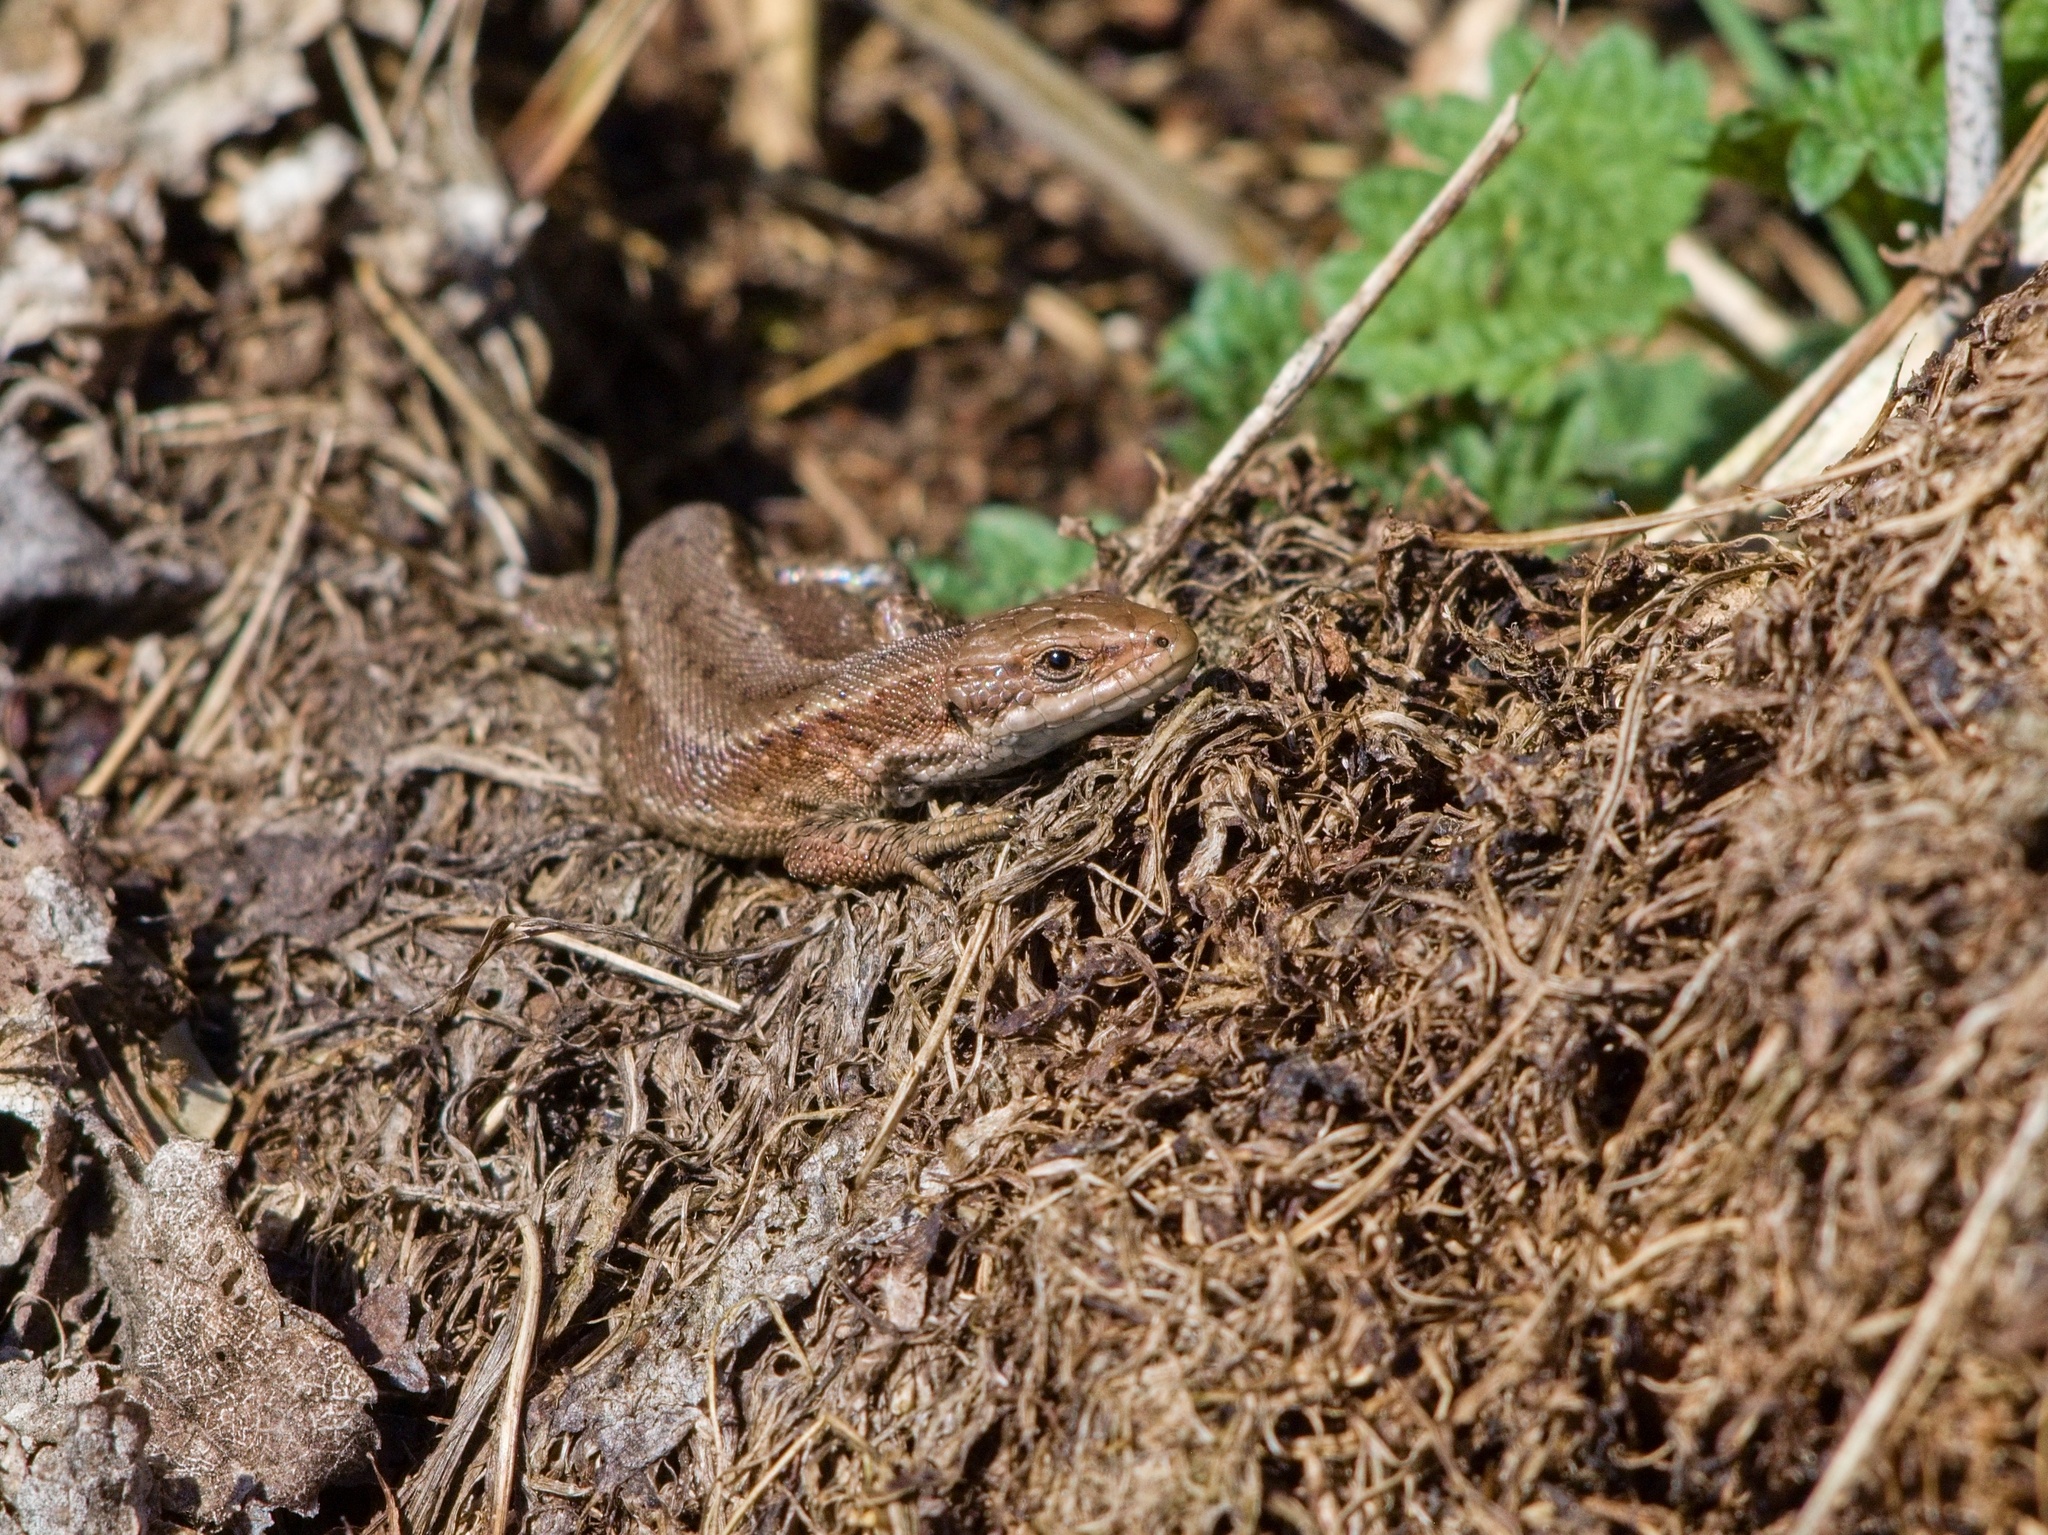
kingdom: Animalia
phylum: Chordata
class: Squamata
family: Lacertidae
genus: Zootoca
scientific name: Zootoca vivipara
